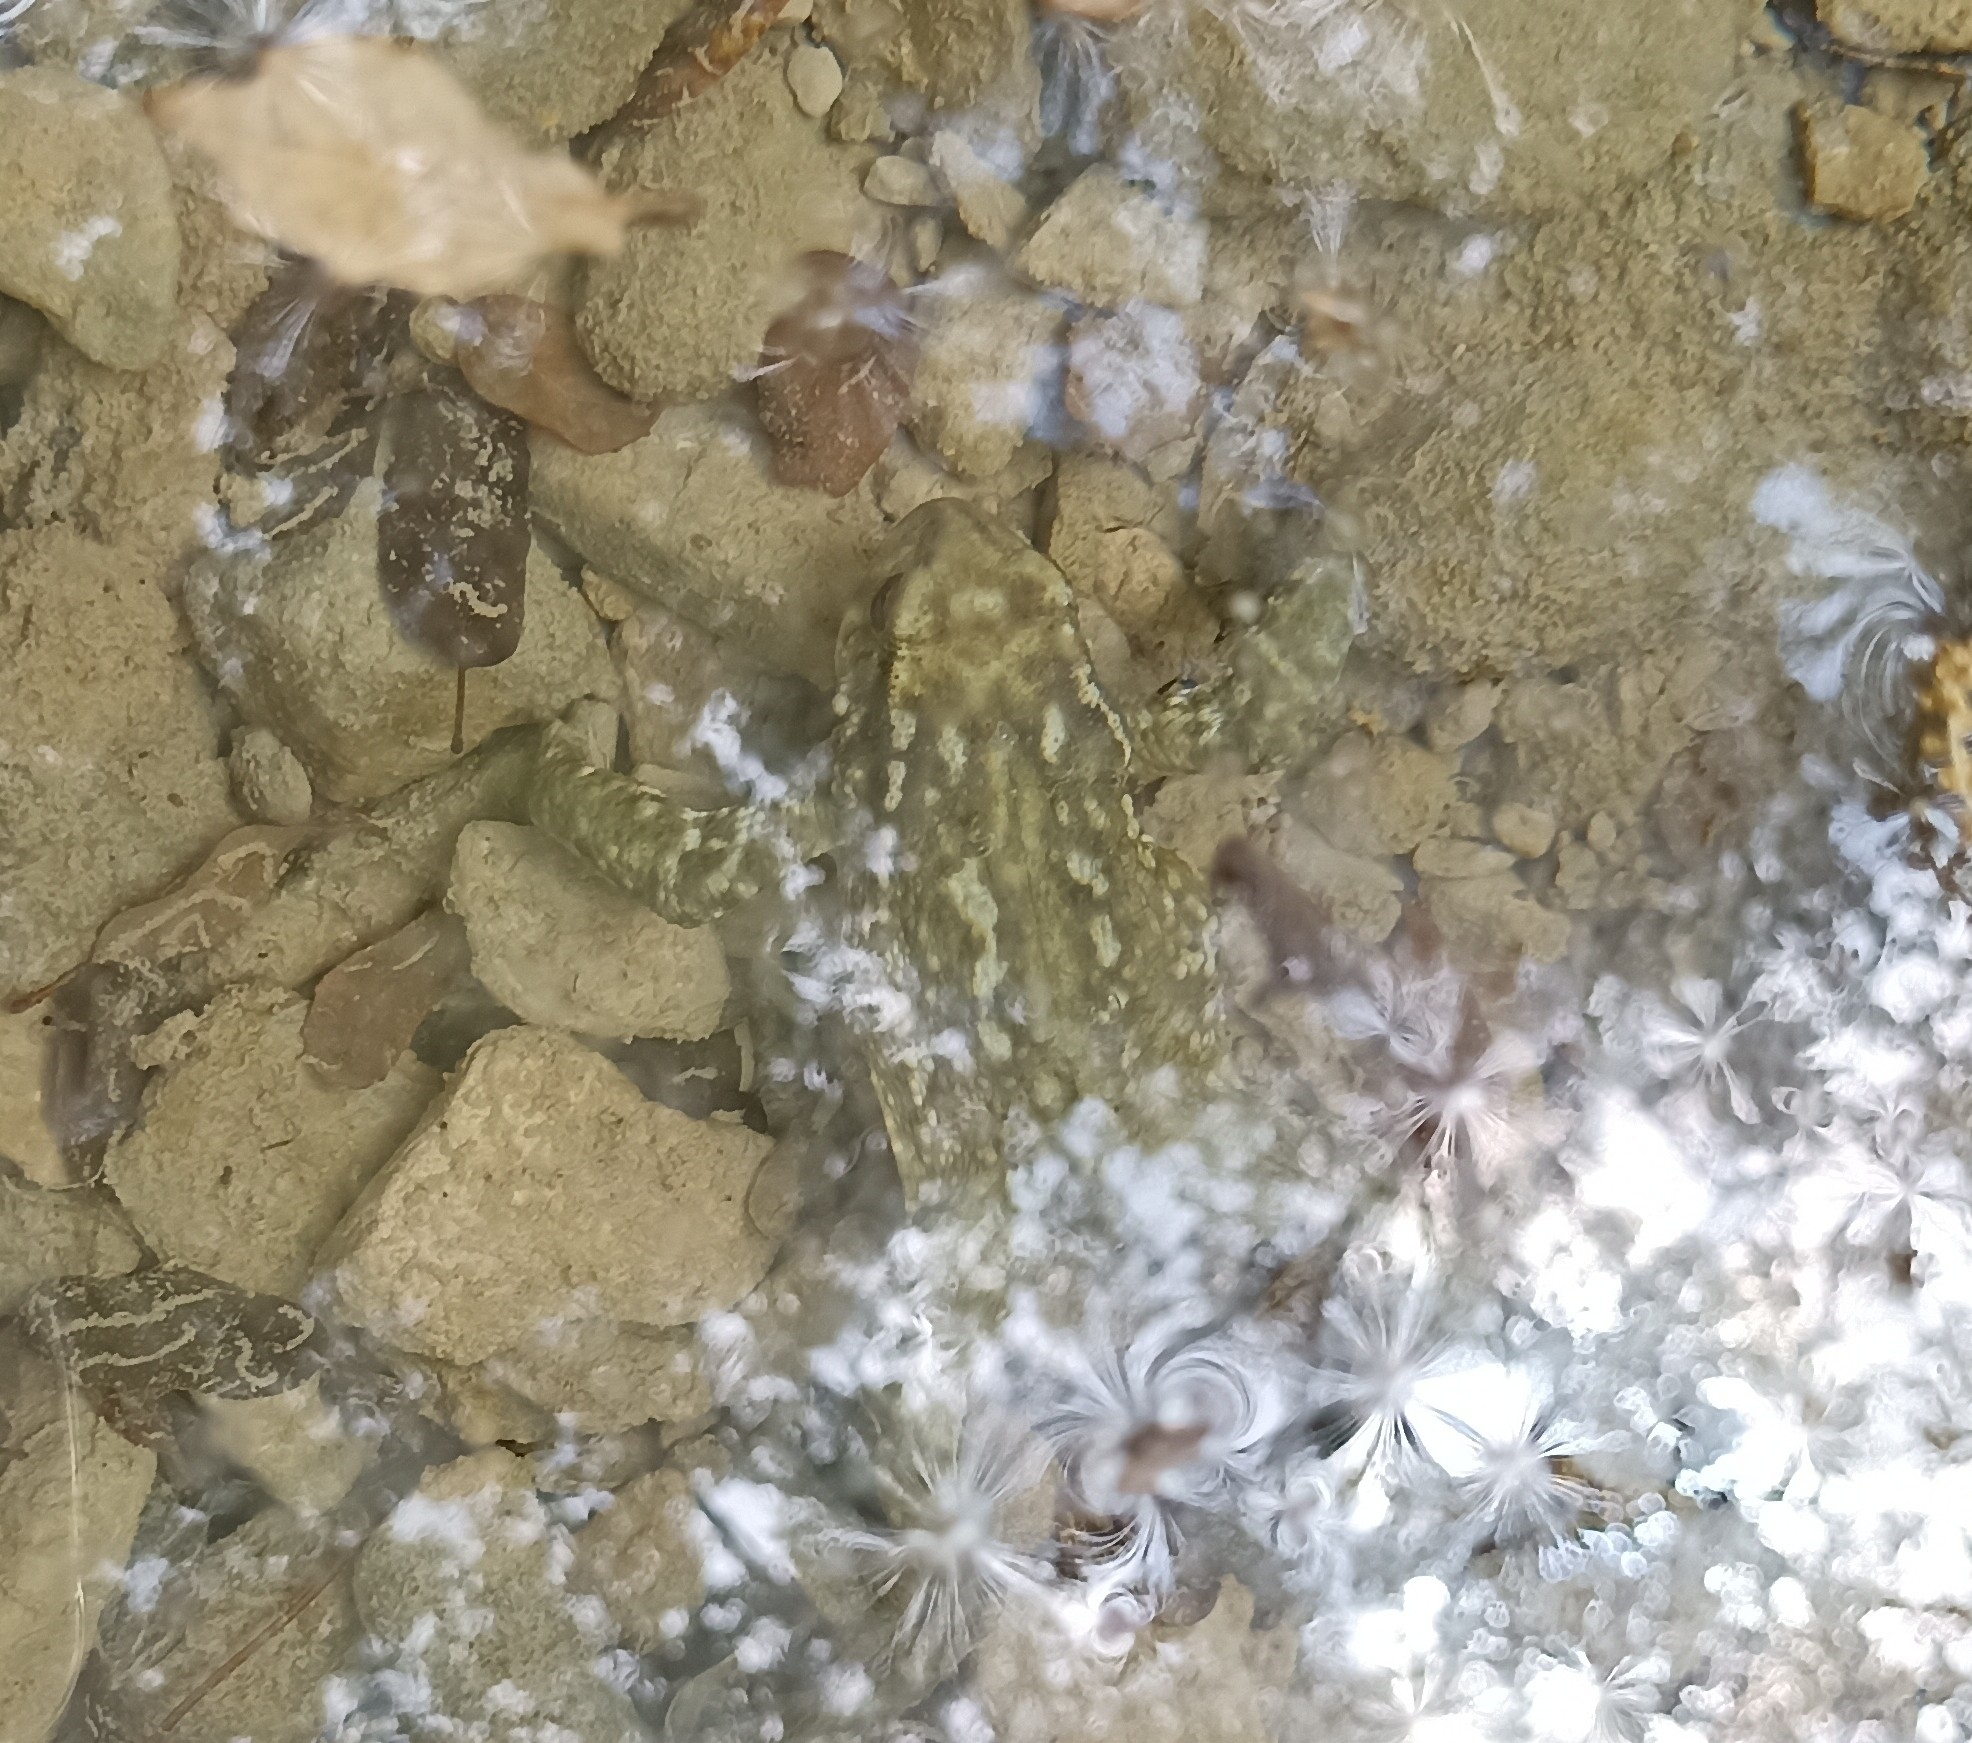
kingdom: Animalia
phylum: Chordata
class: Amphibia
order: Anura
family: Bufonidae
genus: Bufo
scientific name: Bufo spinosus
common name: Western common toad
